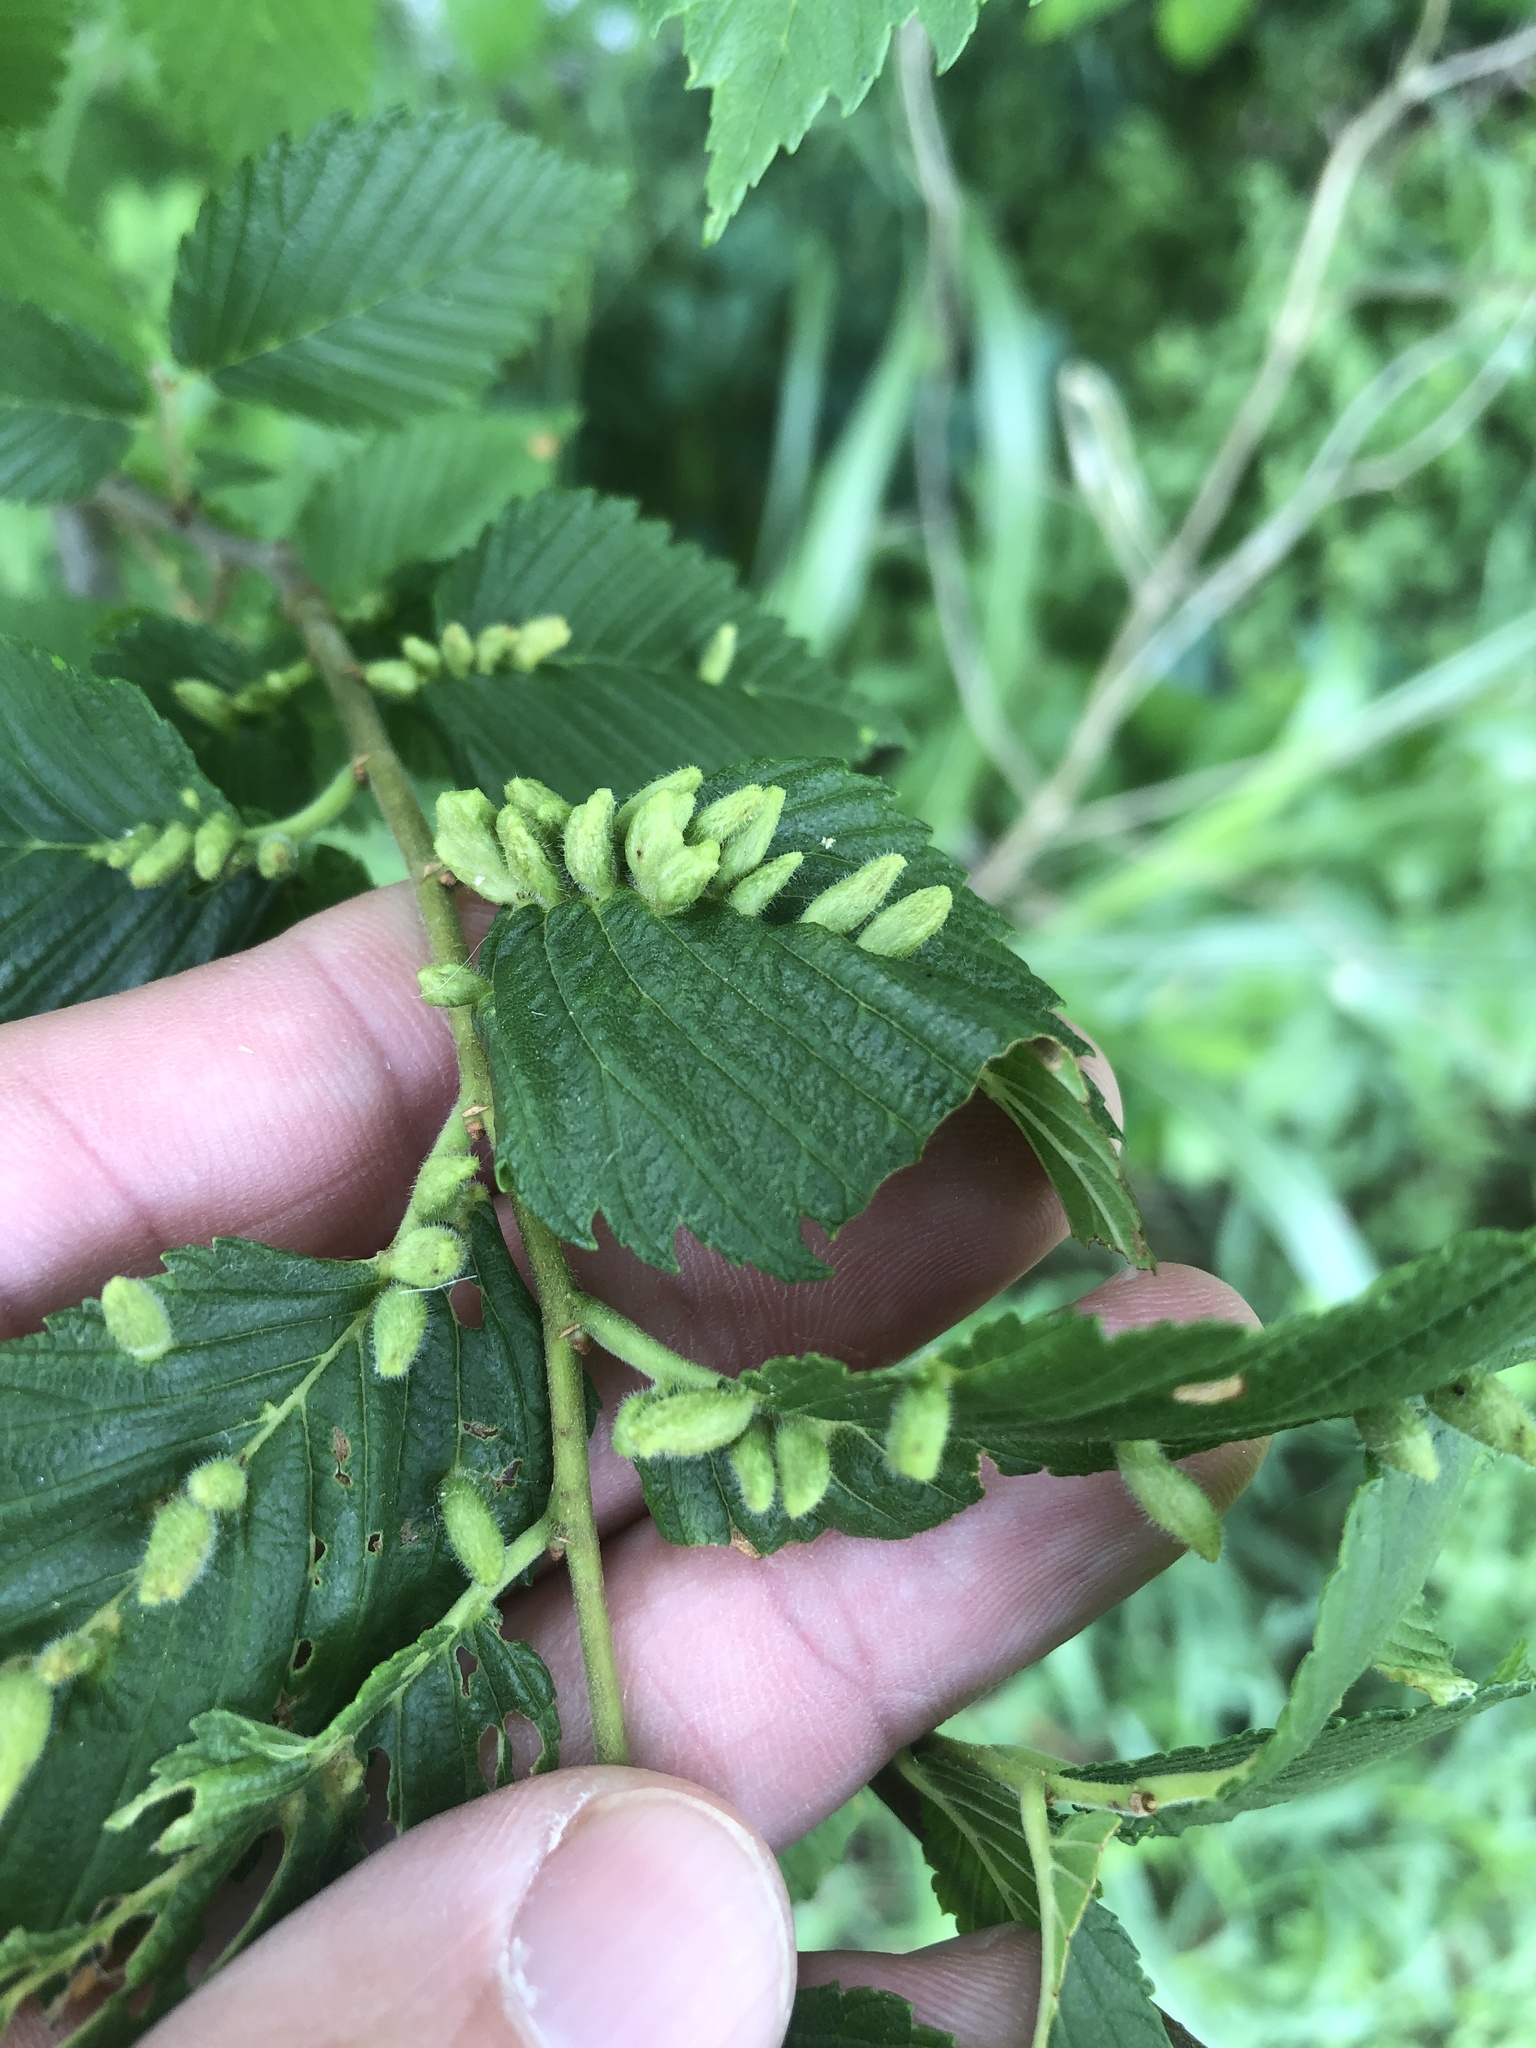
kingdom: Animalia
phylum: Arthropoda
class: Arachnida
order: Trombidiformes
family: Eriophyidae
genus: Aceria
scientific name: Aceria
